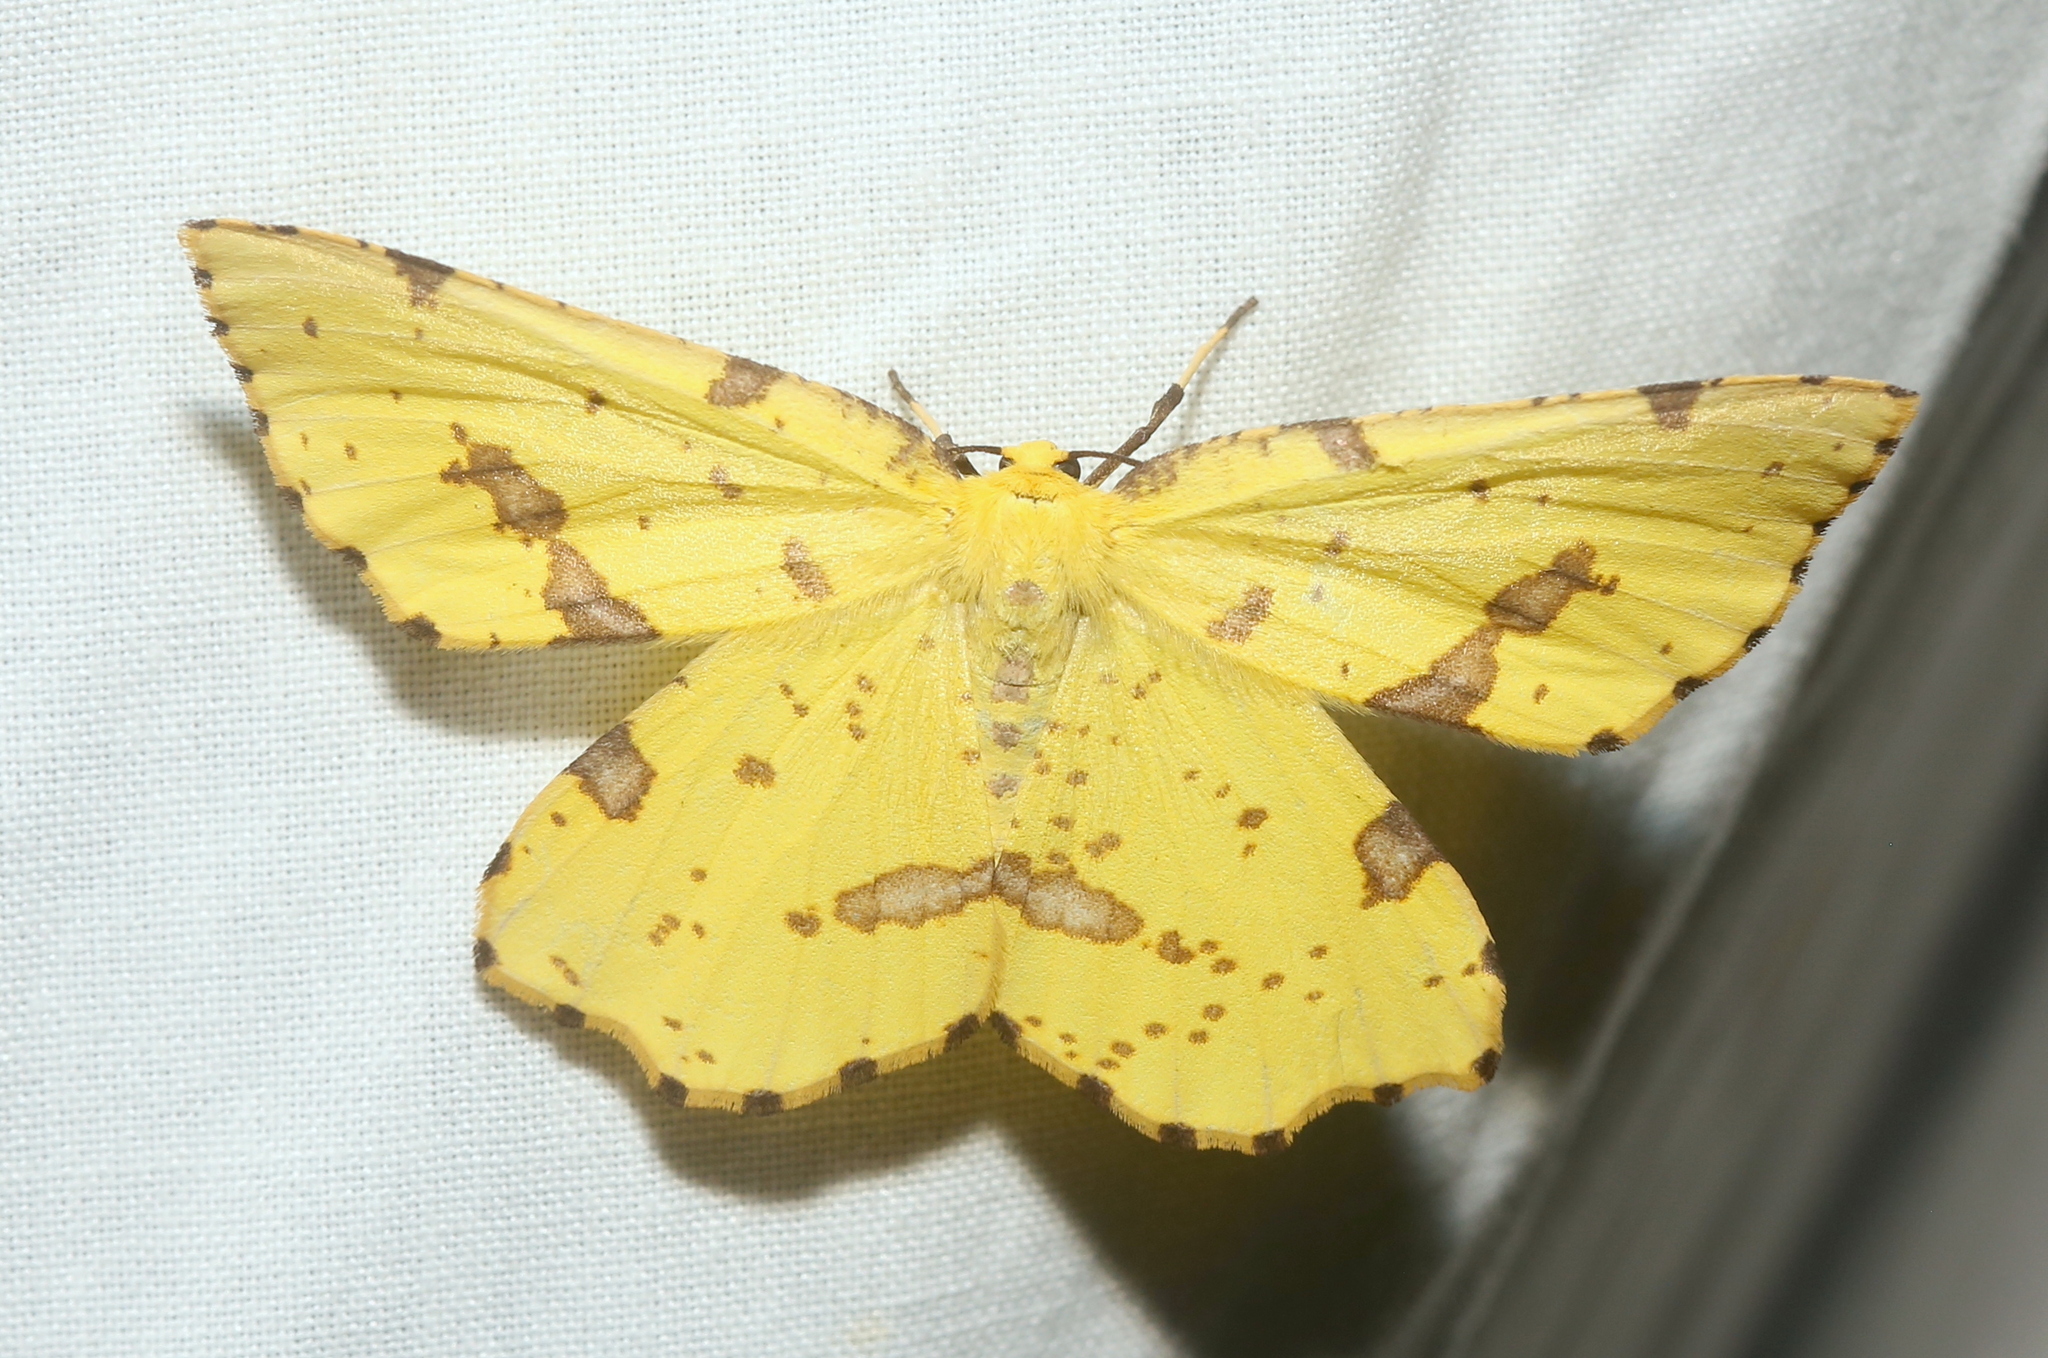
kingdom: Animalia
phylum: Arthropoda
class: Insecta
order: Lepidoptera
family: Geometridae
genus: Xanthotype
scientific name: Xanthotype
